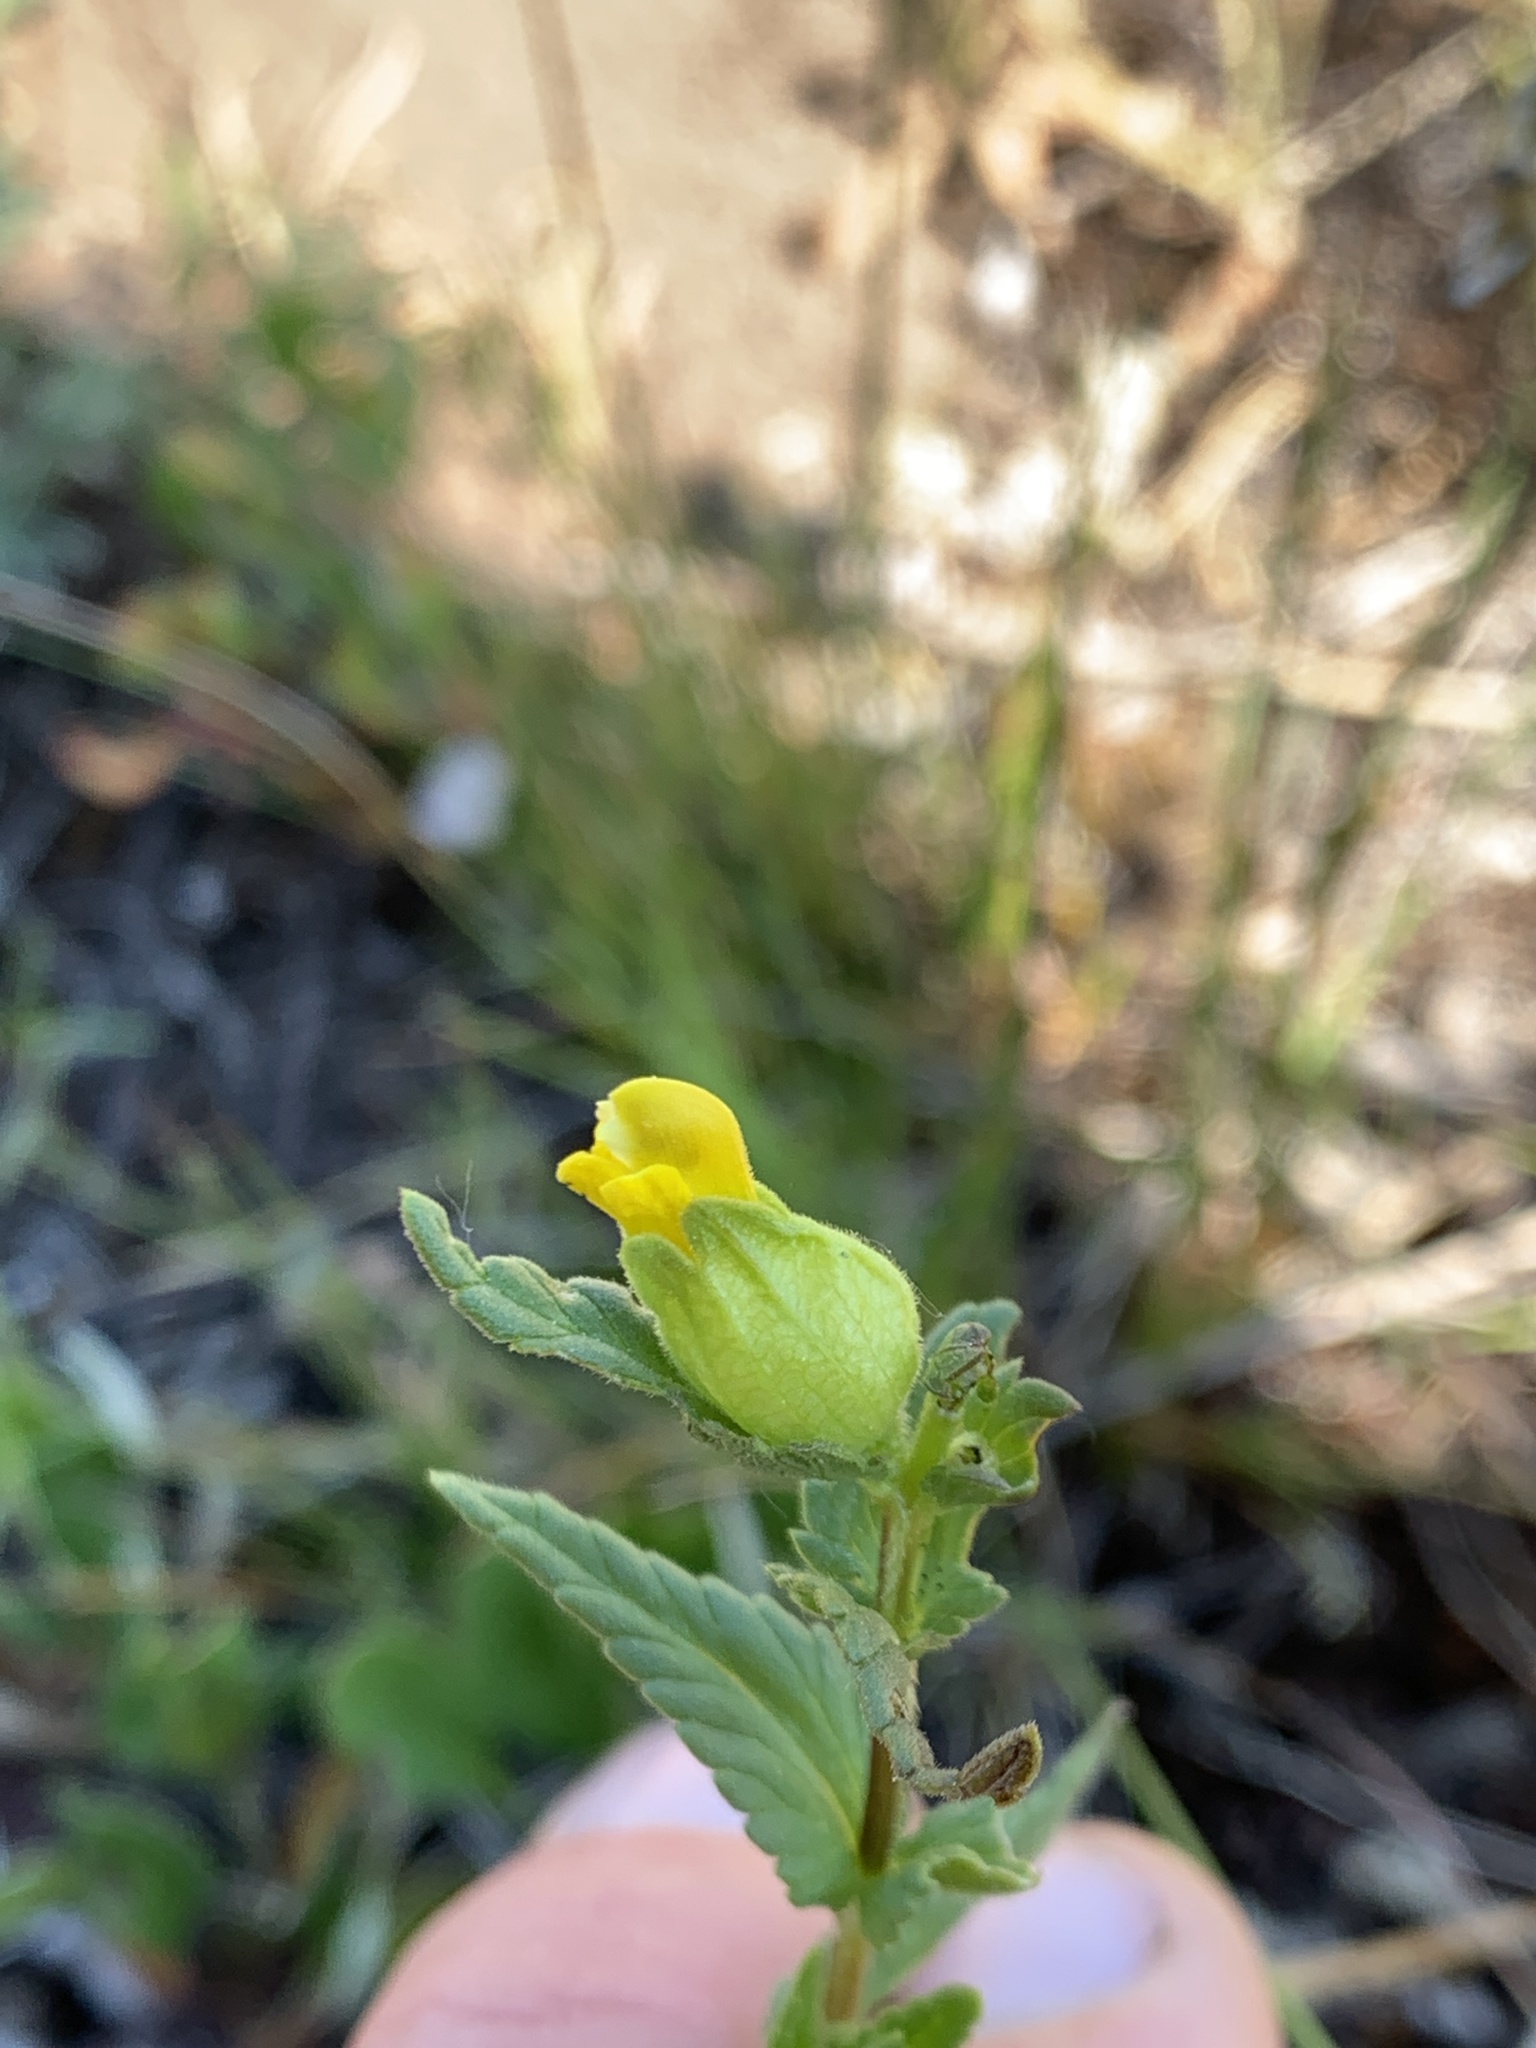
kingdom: Plantae
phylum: Tracheophyta
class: Magnoliopsida
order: Lamiales
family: Orobanchaceae
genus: Rhinanthus
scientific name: Rhinanthus groenlandicus
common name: Little yellow rattle
